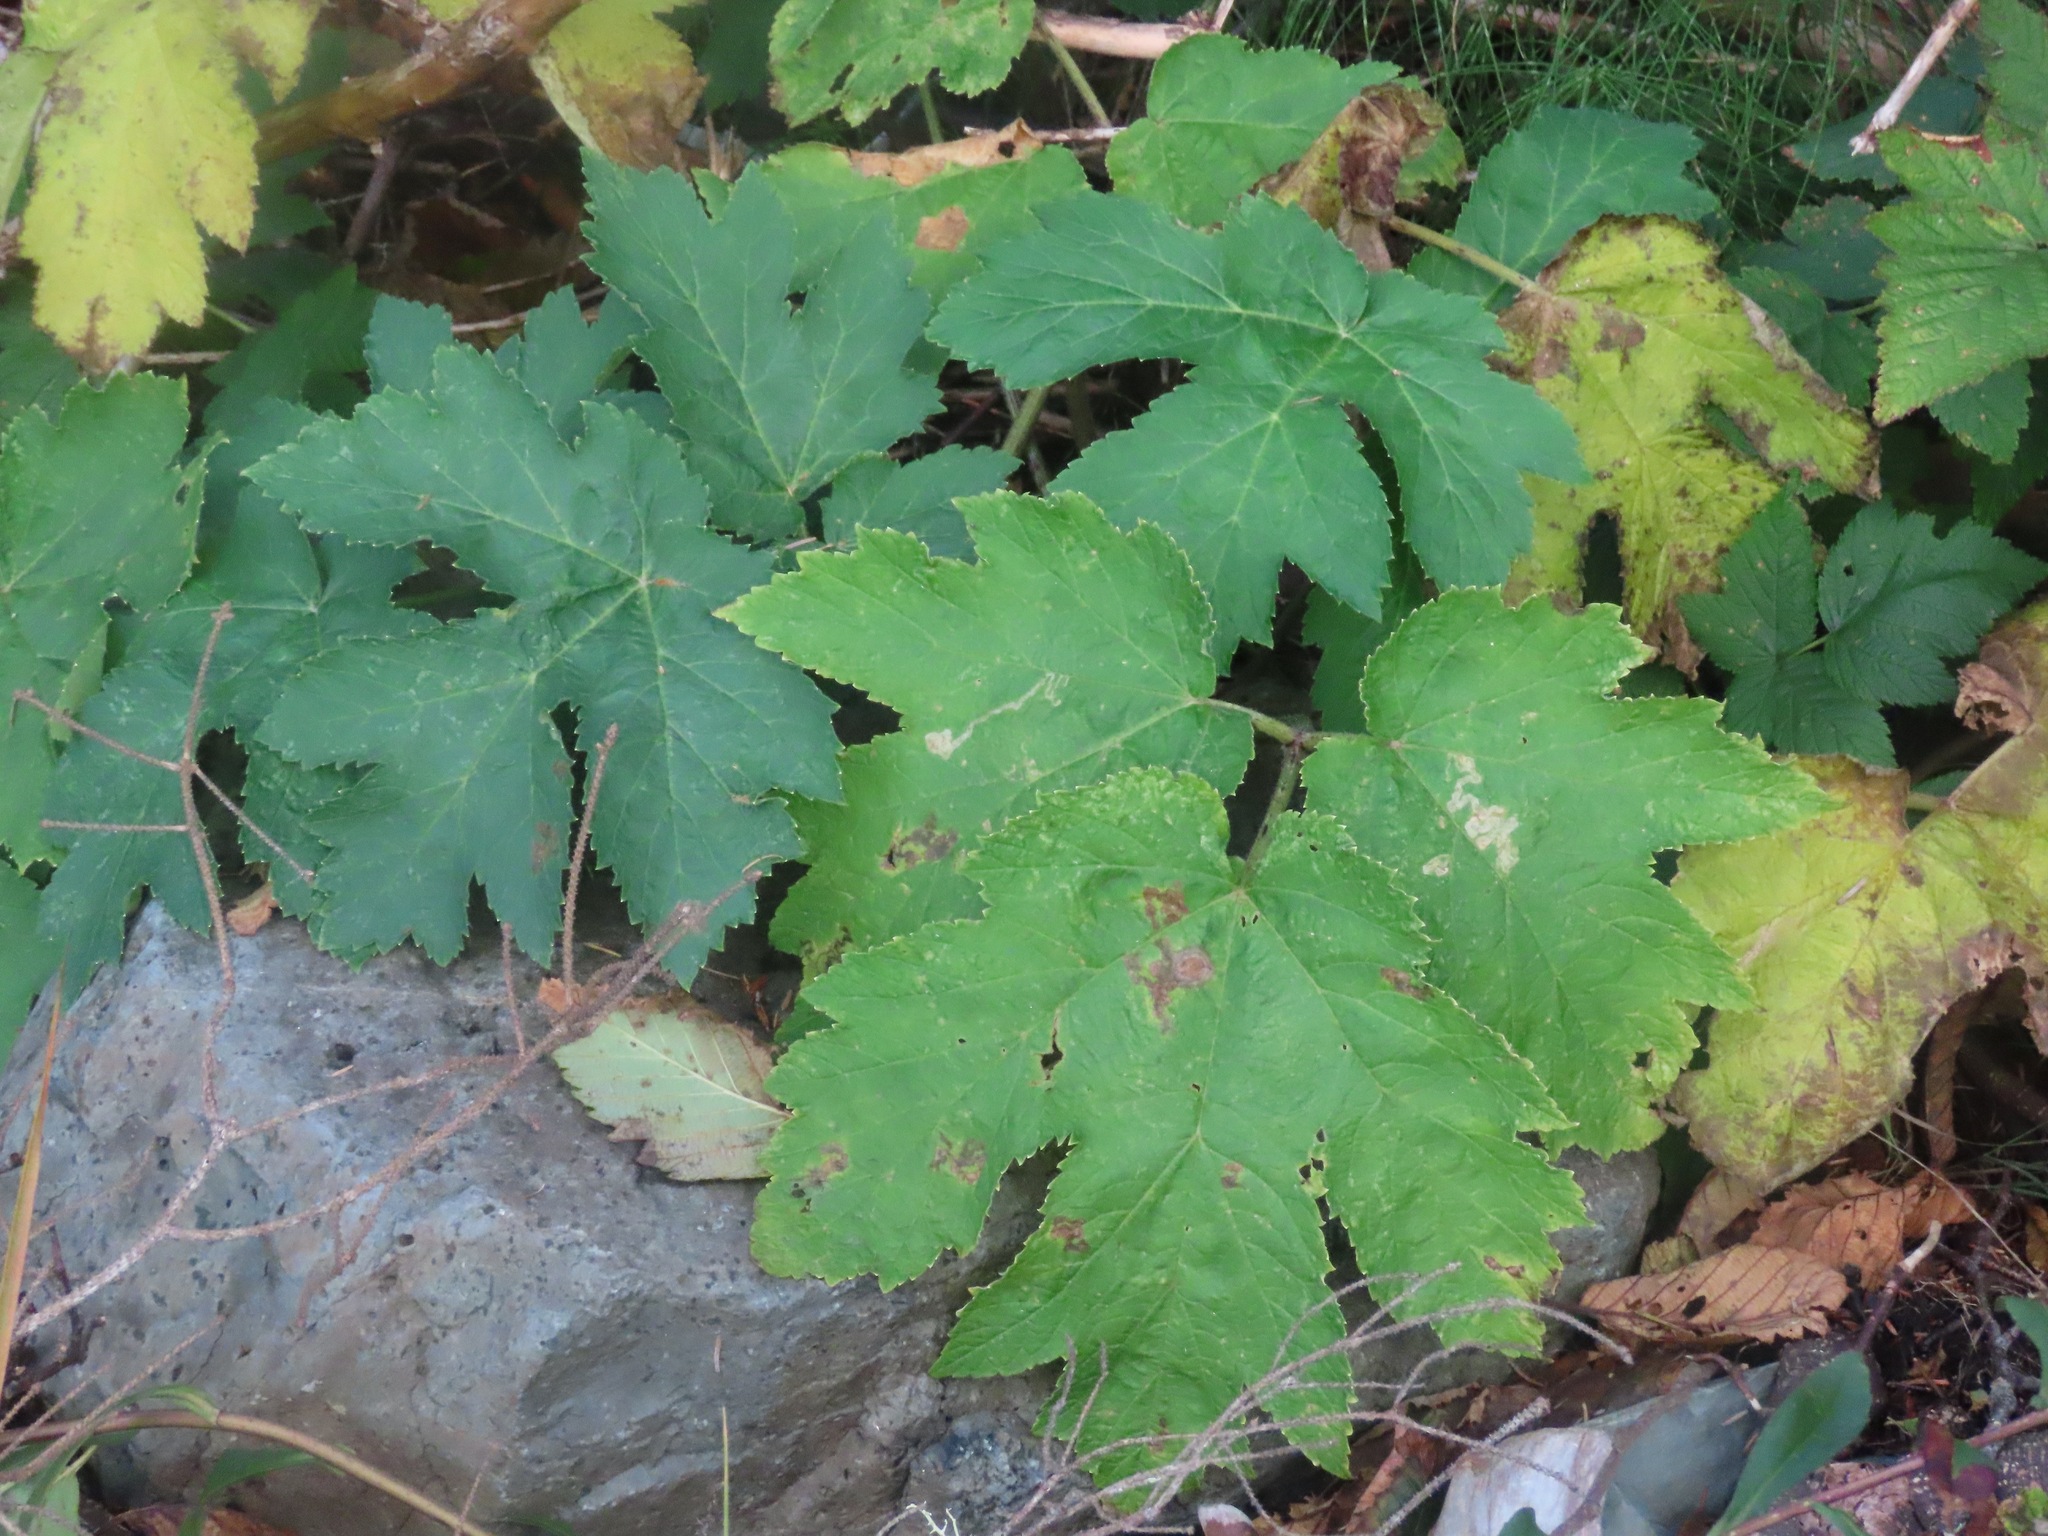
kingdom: Plantae
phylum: Tracheophyta
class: Magnoliopsida
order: Apiales
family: Apiaceae
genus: Heracleum
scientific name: Heracleum maximum
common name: American cow parsnip
